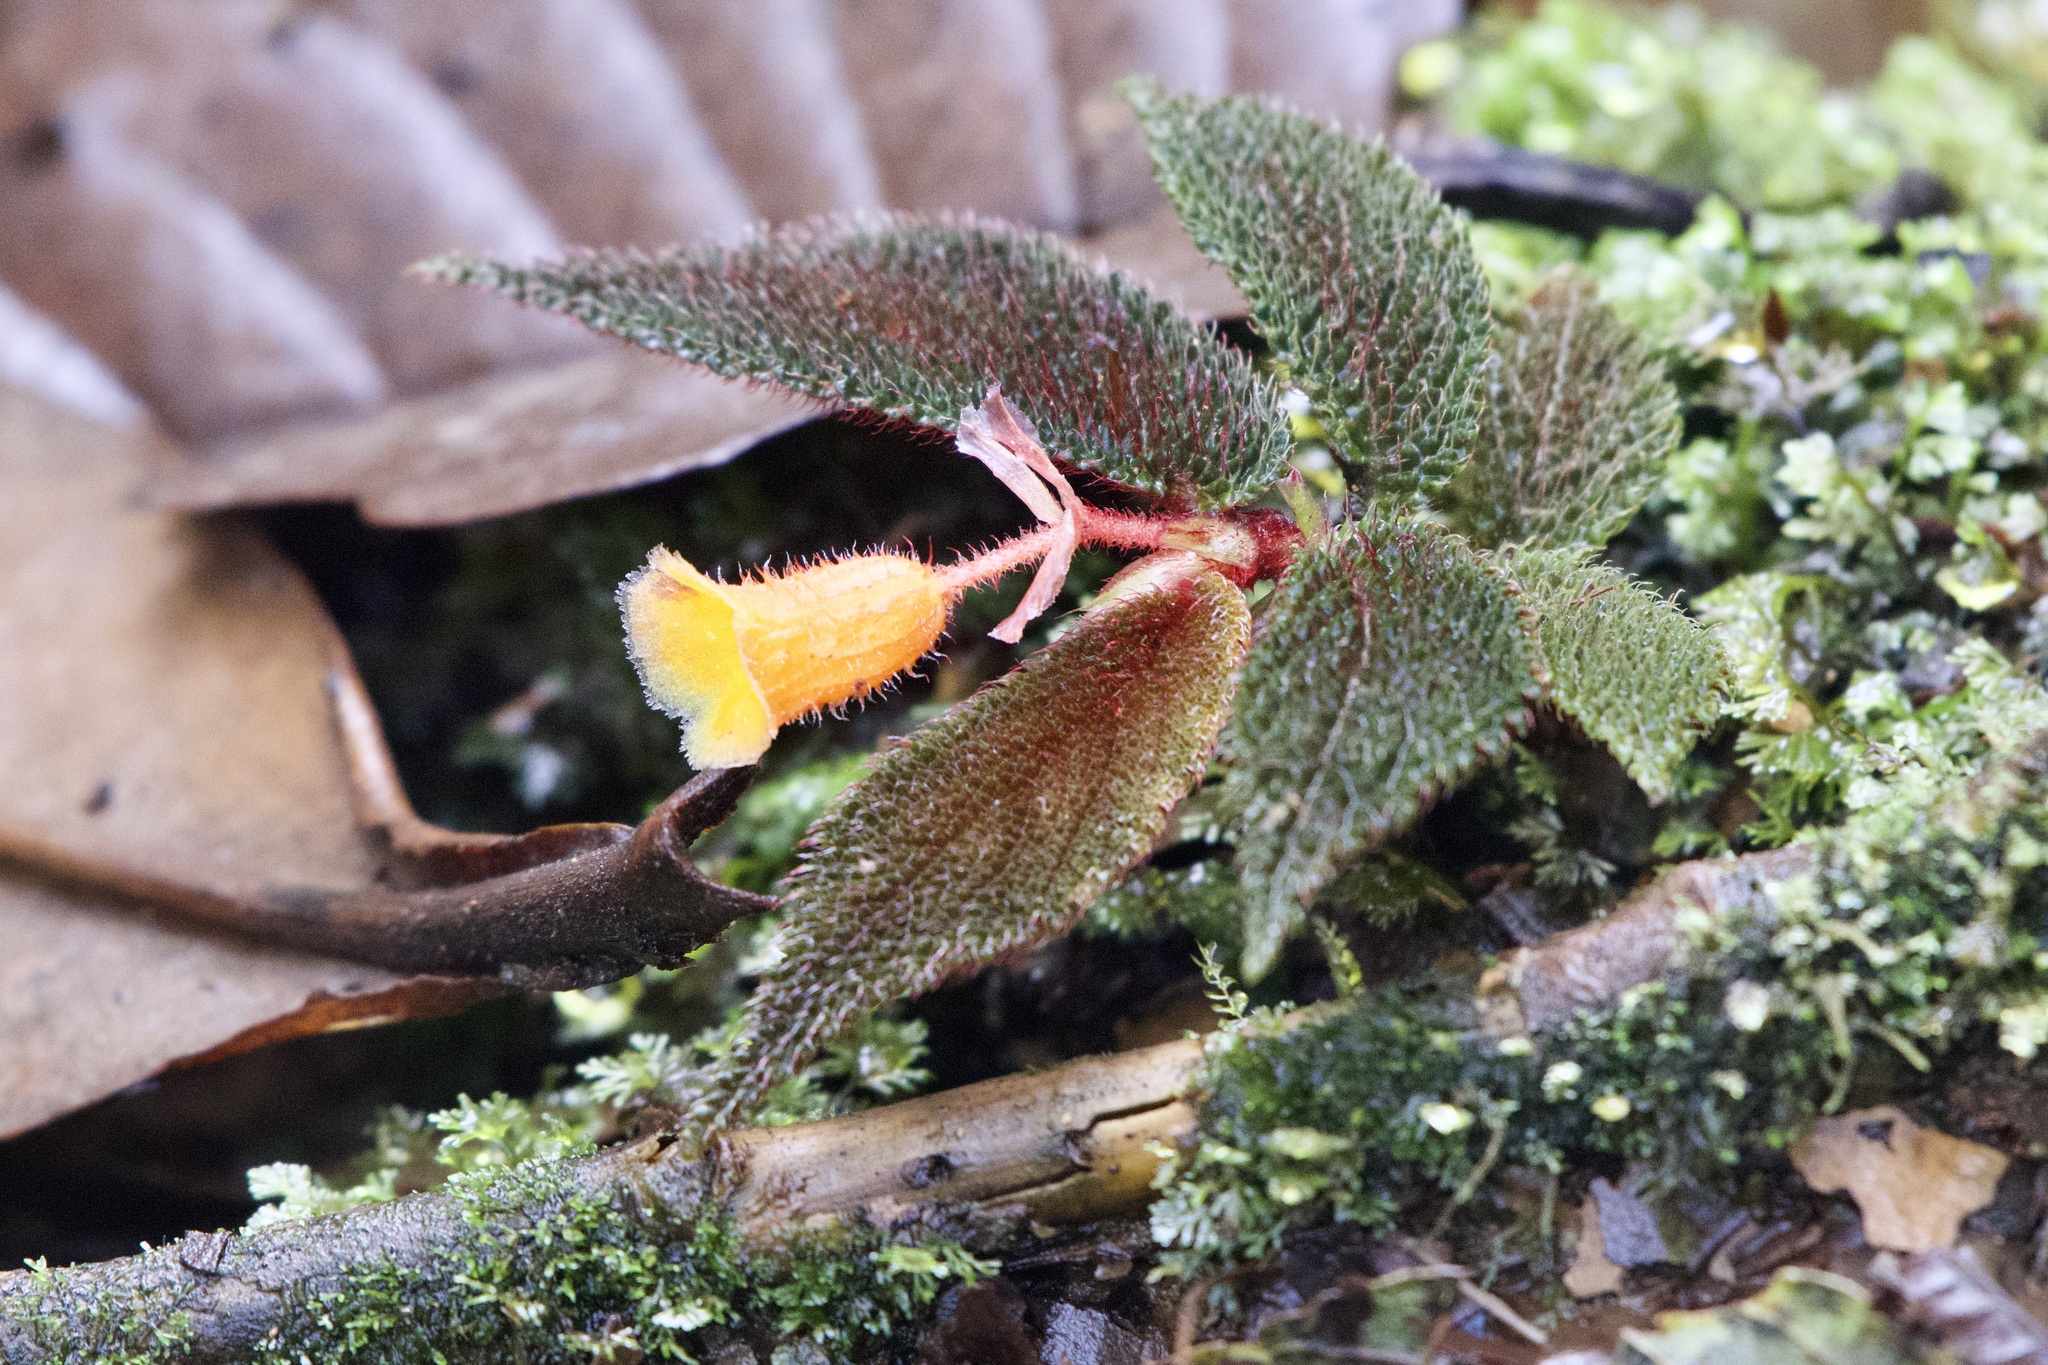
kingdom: Plantae
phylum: Tracheophyta
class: Magnoliopsida
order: Cucurbitales
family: Begoniaceae
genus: Begonia
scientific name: Begonia lehmannii
